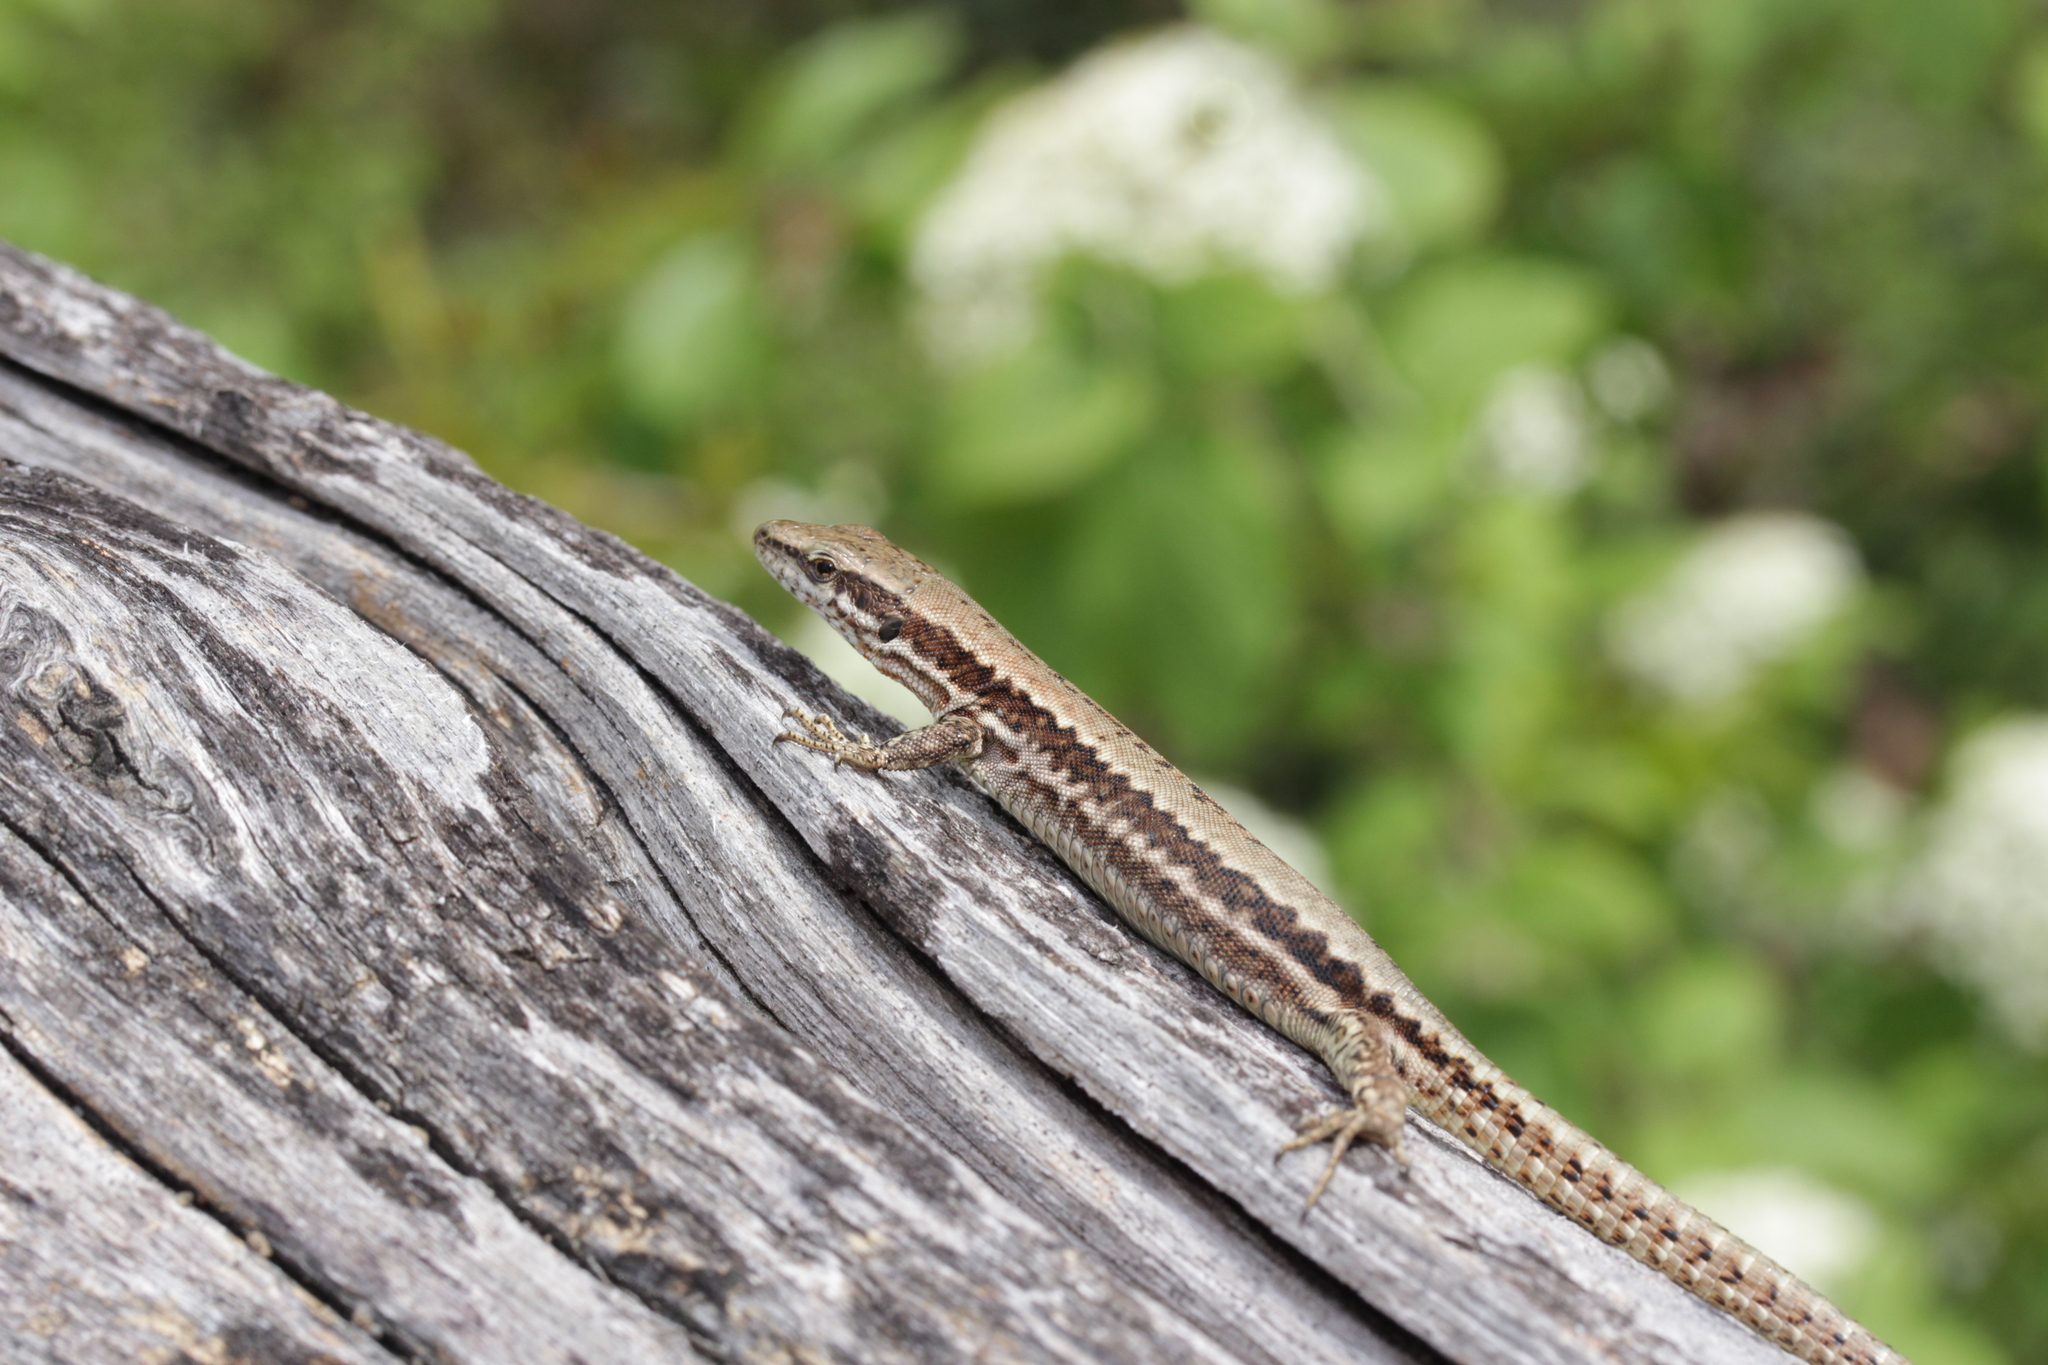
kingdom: Animalia
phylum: Chordata
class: Squamata
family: Lacertidae
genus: Podarcis
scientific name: Podarcis muralis
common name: Common wall lizard
